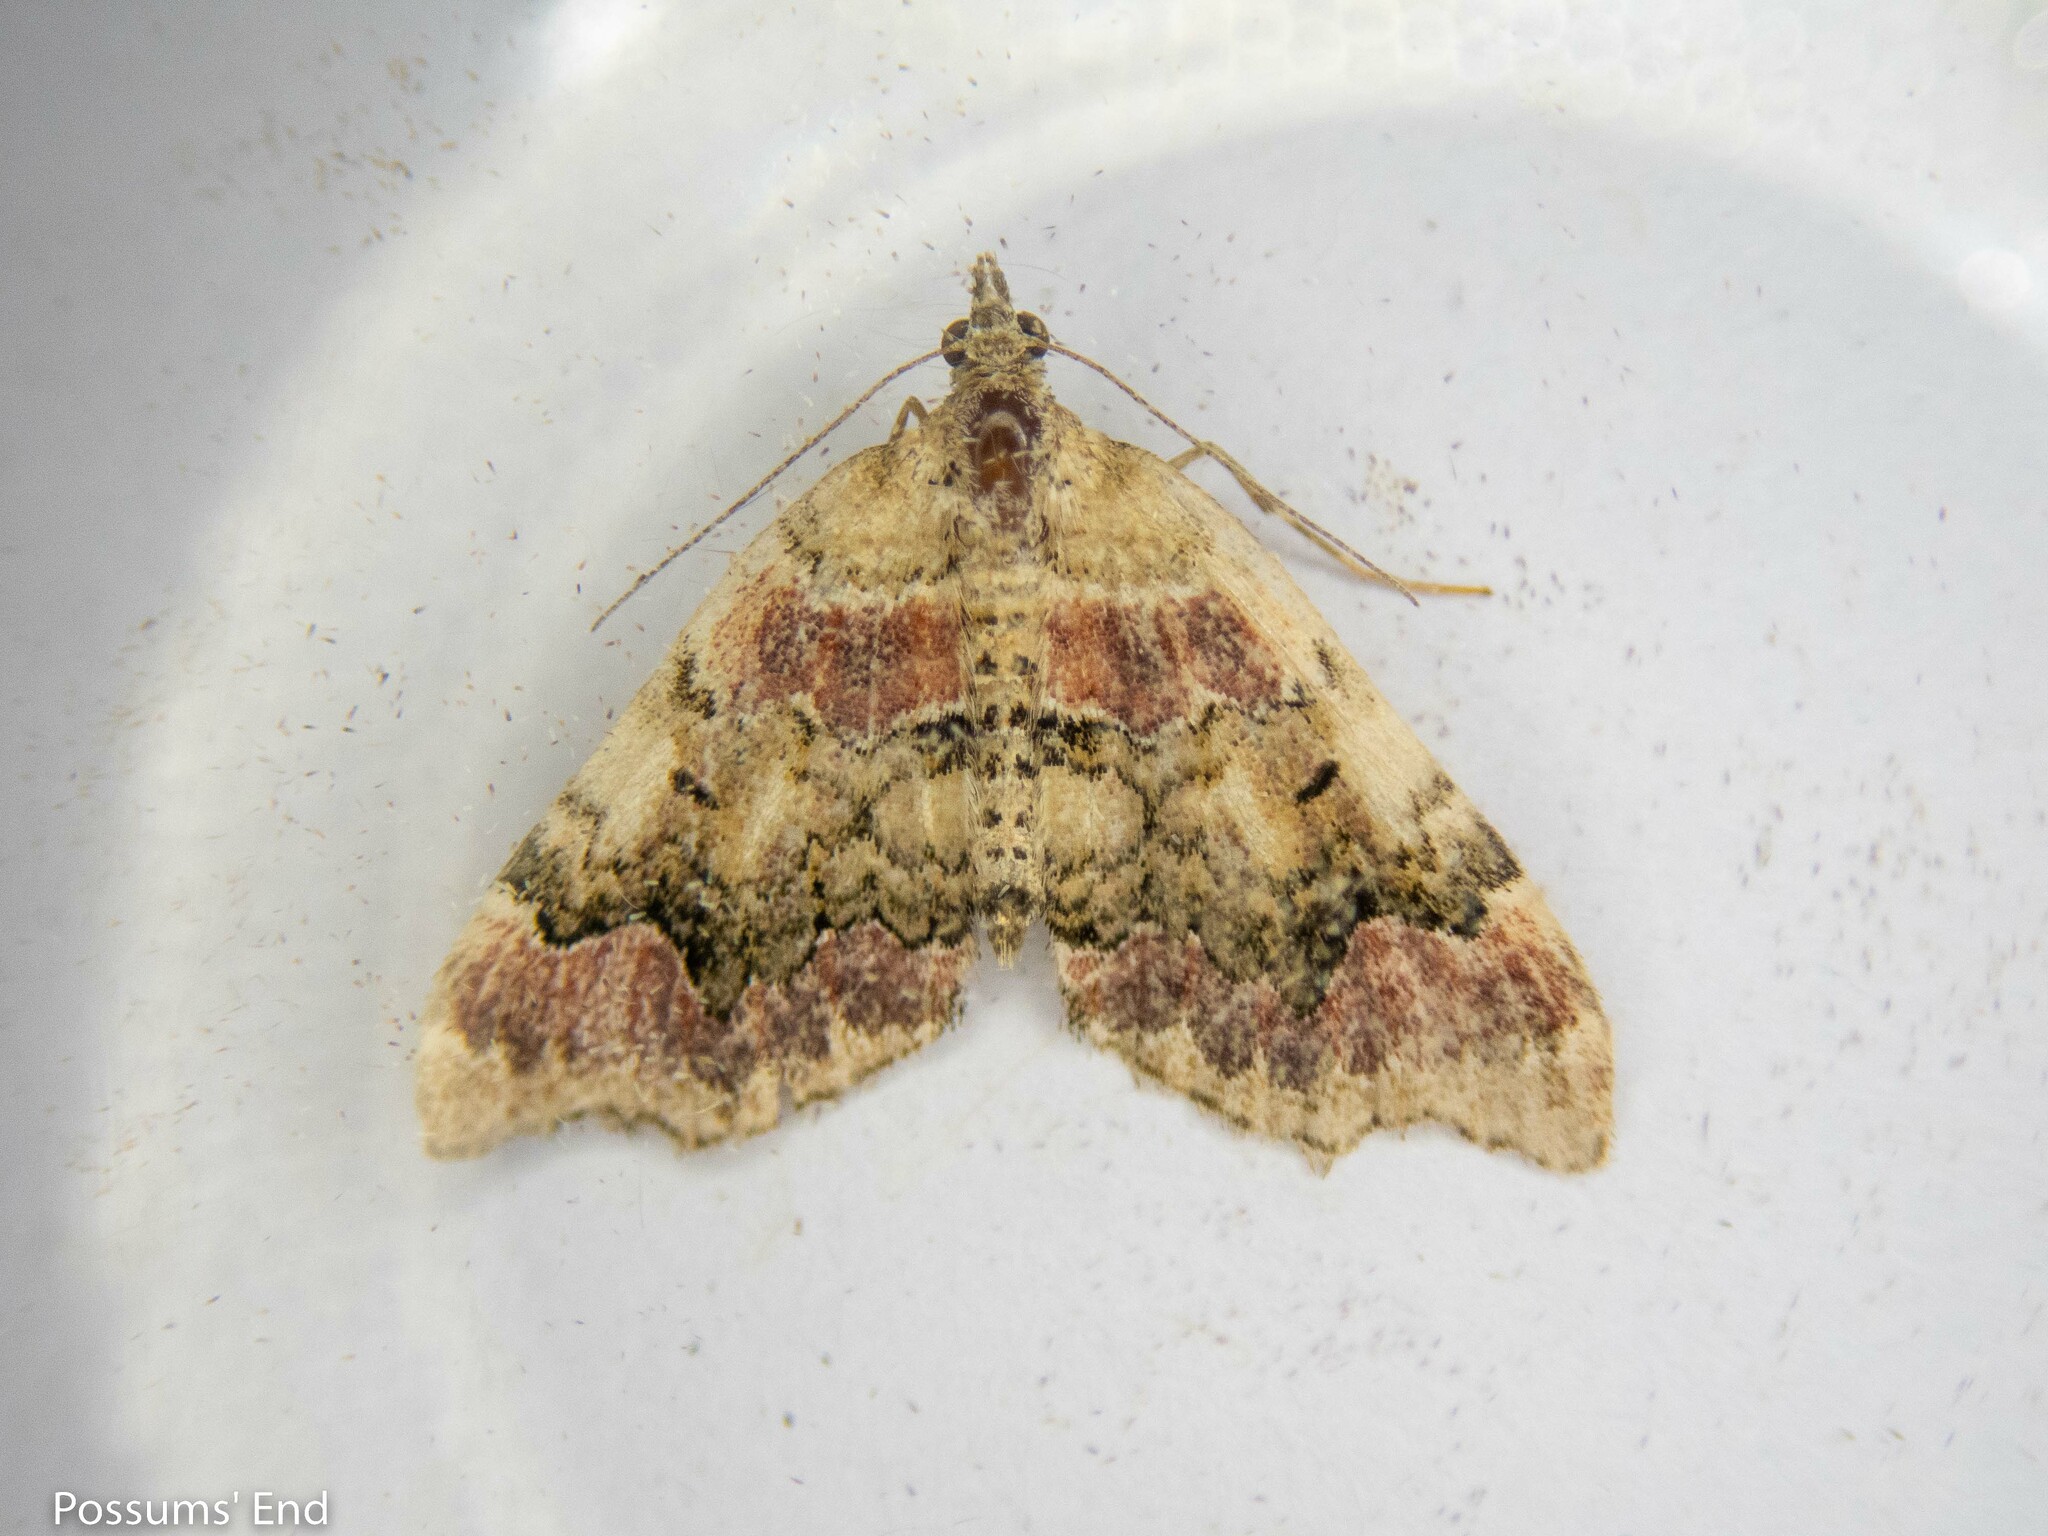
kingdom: Animalia
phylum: Arthropoda
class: Insecta
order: Lepidoptera
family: Geometridae
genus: Helastia
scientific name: Helastia cryptica
